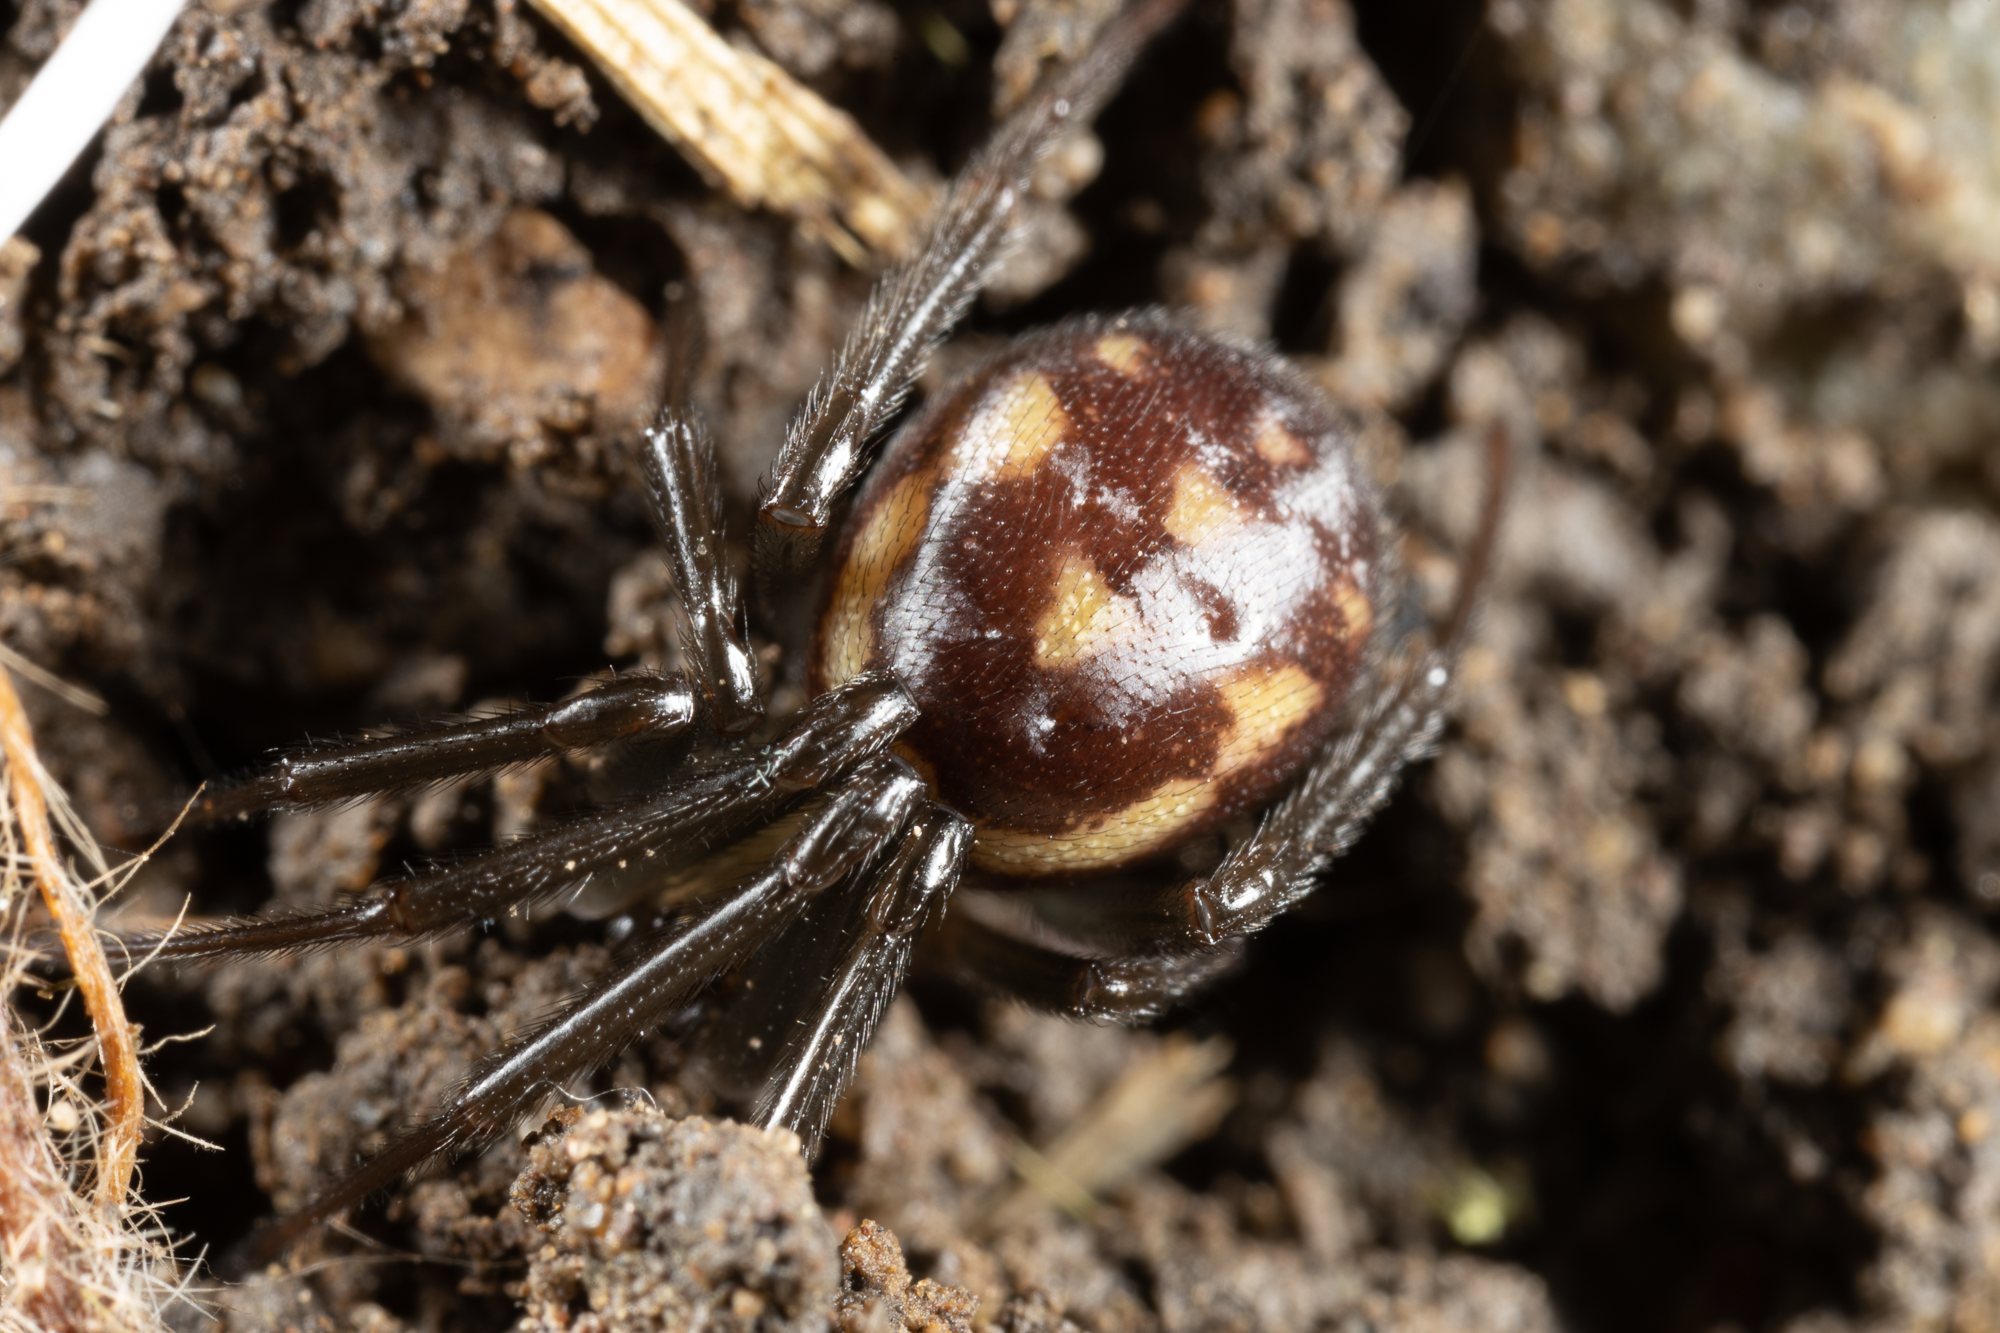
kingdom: Animalia
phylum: Arthropoda
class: Arachnida
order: Araneae
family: Theridiidae
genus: Steatoda
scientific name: Steatoda grossa
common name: False black widow
